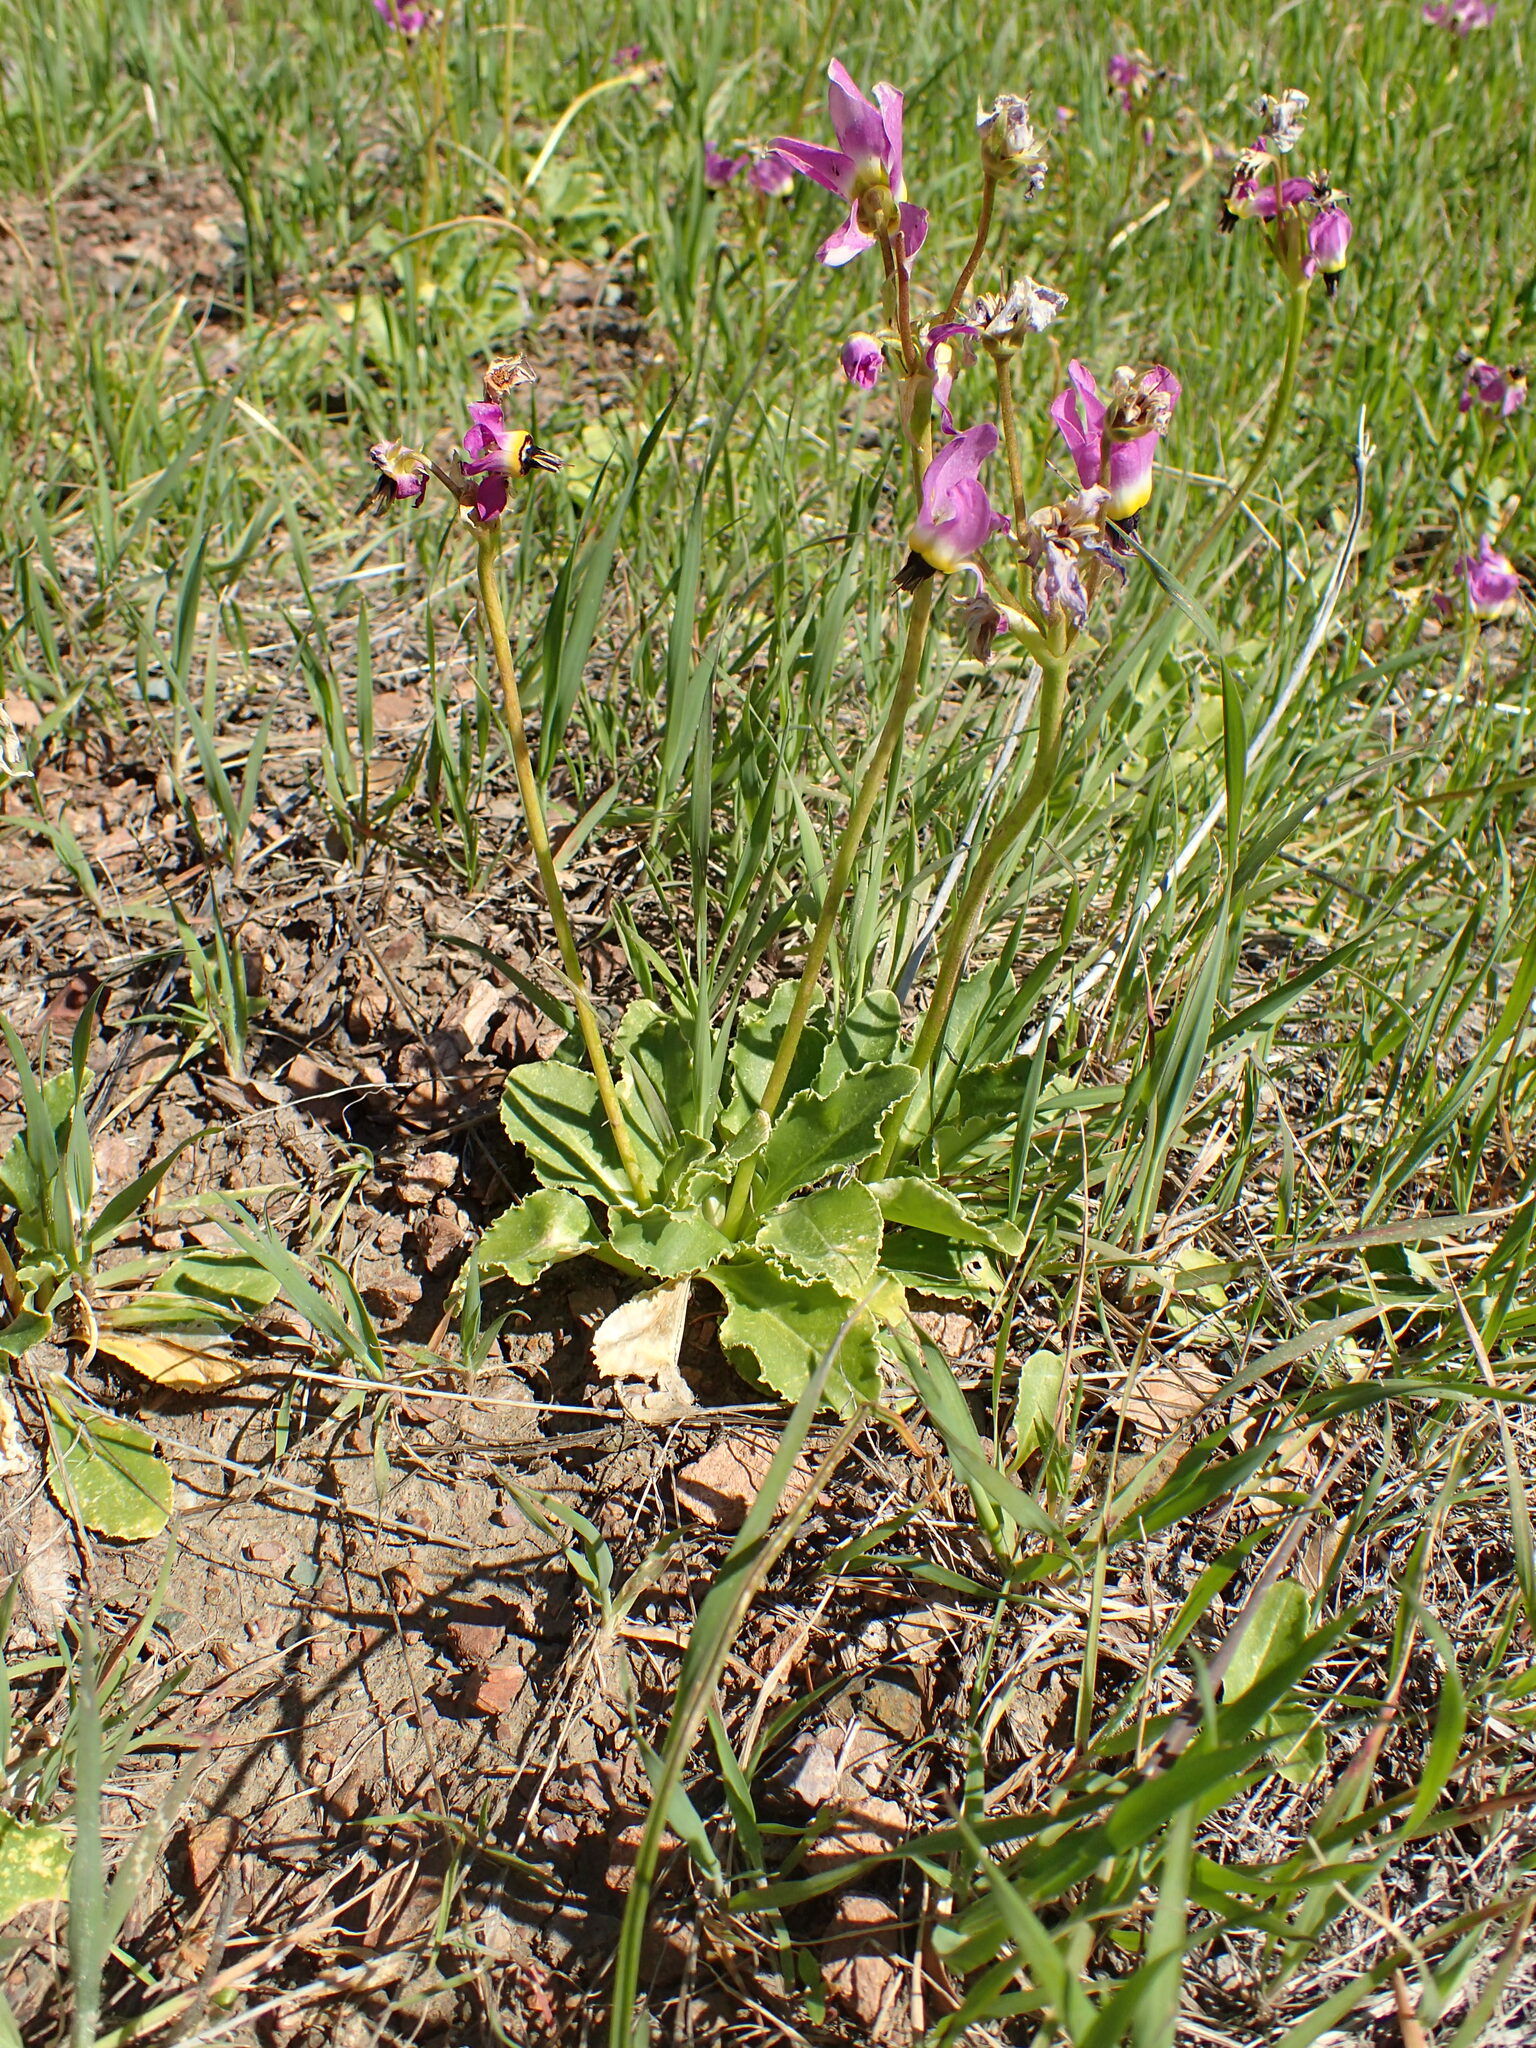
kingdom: Plantae
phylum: Tracheophyta
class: Magnoliopsida
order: Ericales
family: Primulaceae
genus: Dodecatheon
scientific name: Dodecatheon clevelandii
